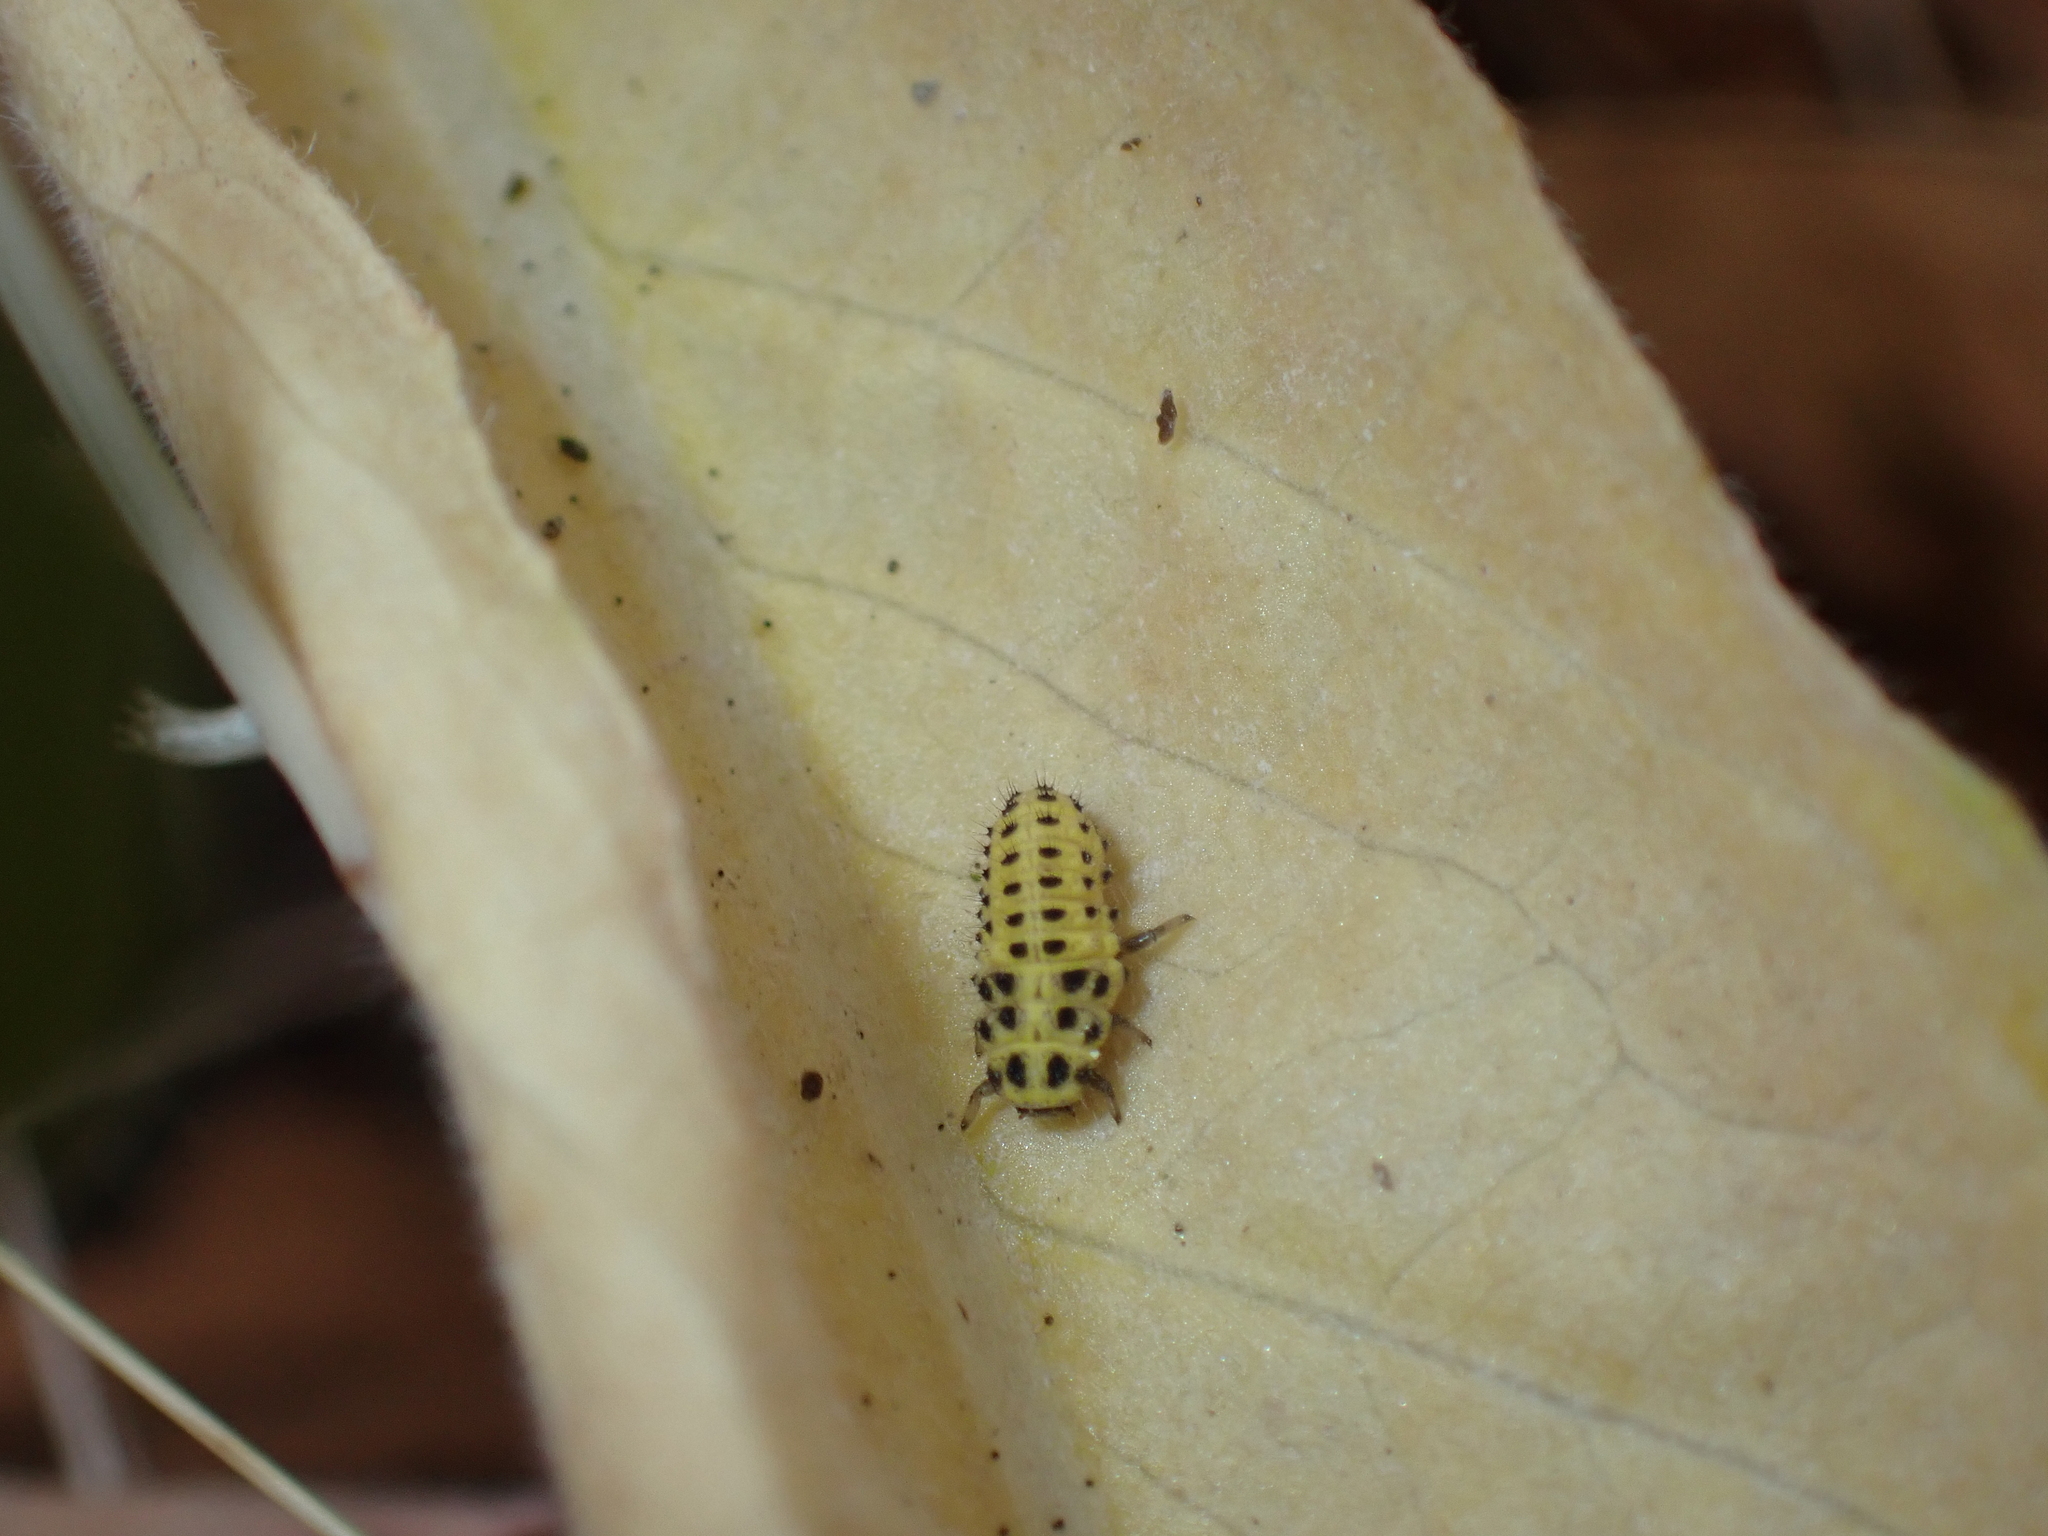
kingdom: Animalia
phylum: Arthropoda
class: Insecta
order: Coleoptera
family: Coccinellidae
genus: Psyllobora
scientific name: Psyllobora vigintiduopunctata
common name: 22-spot ladybird
